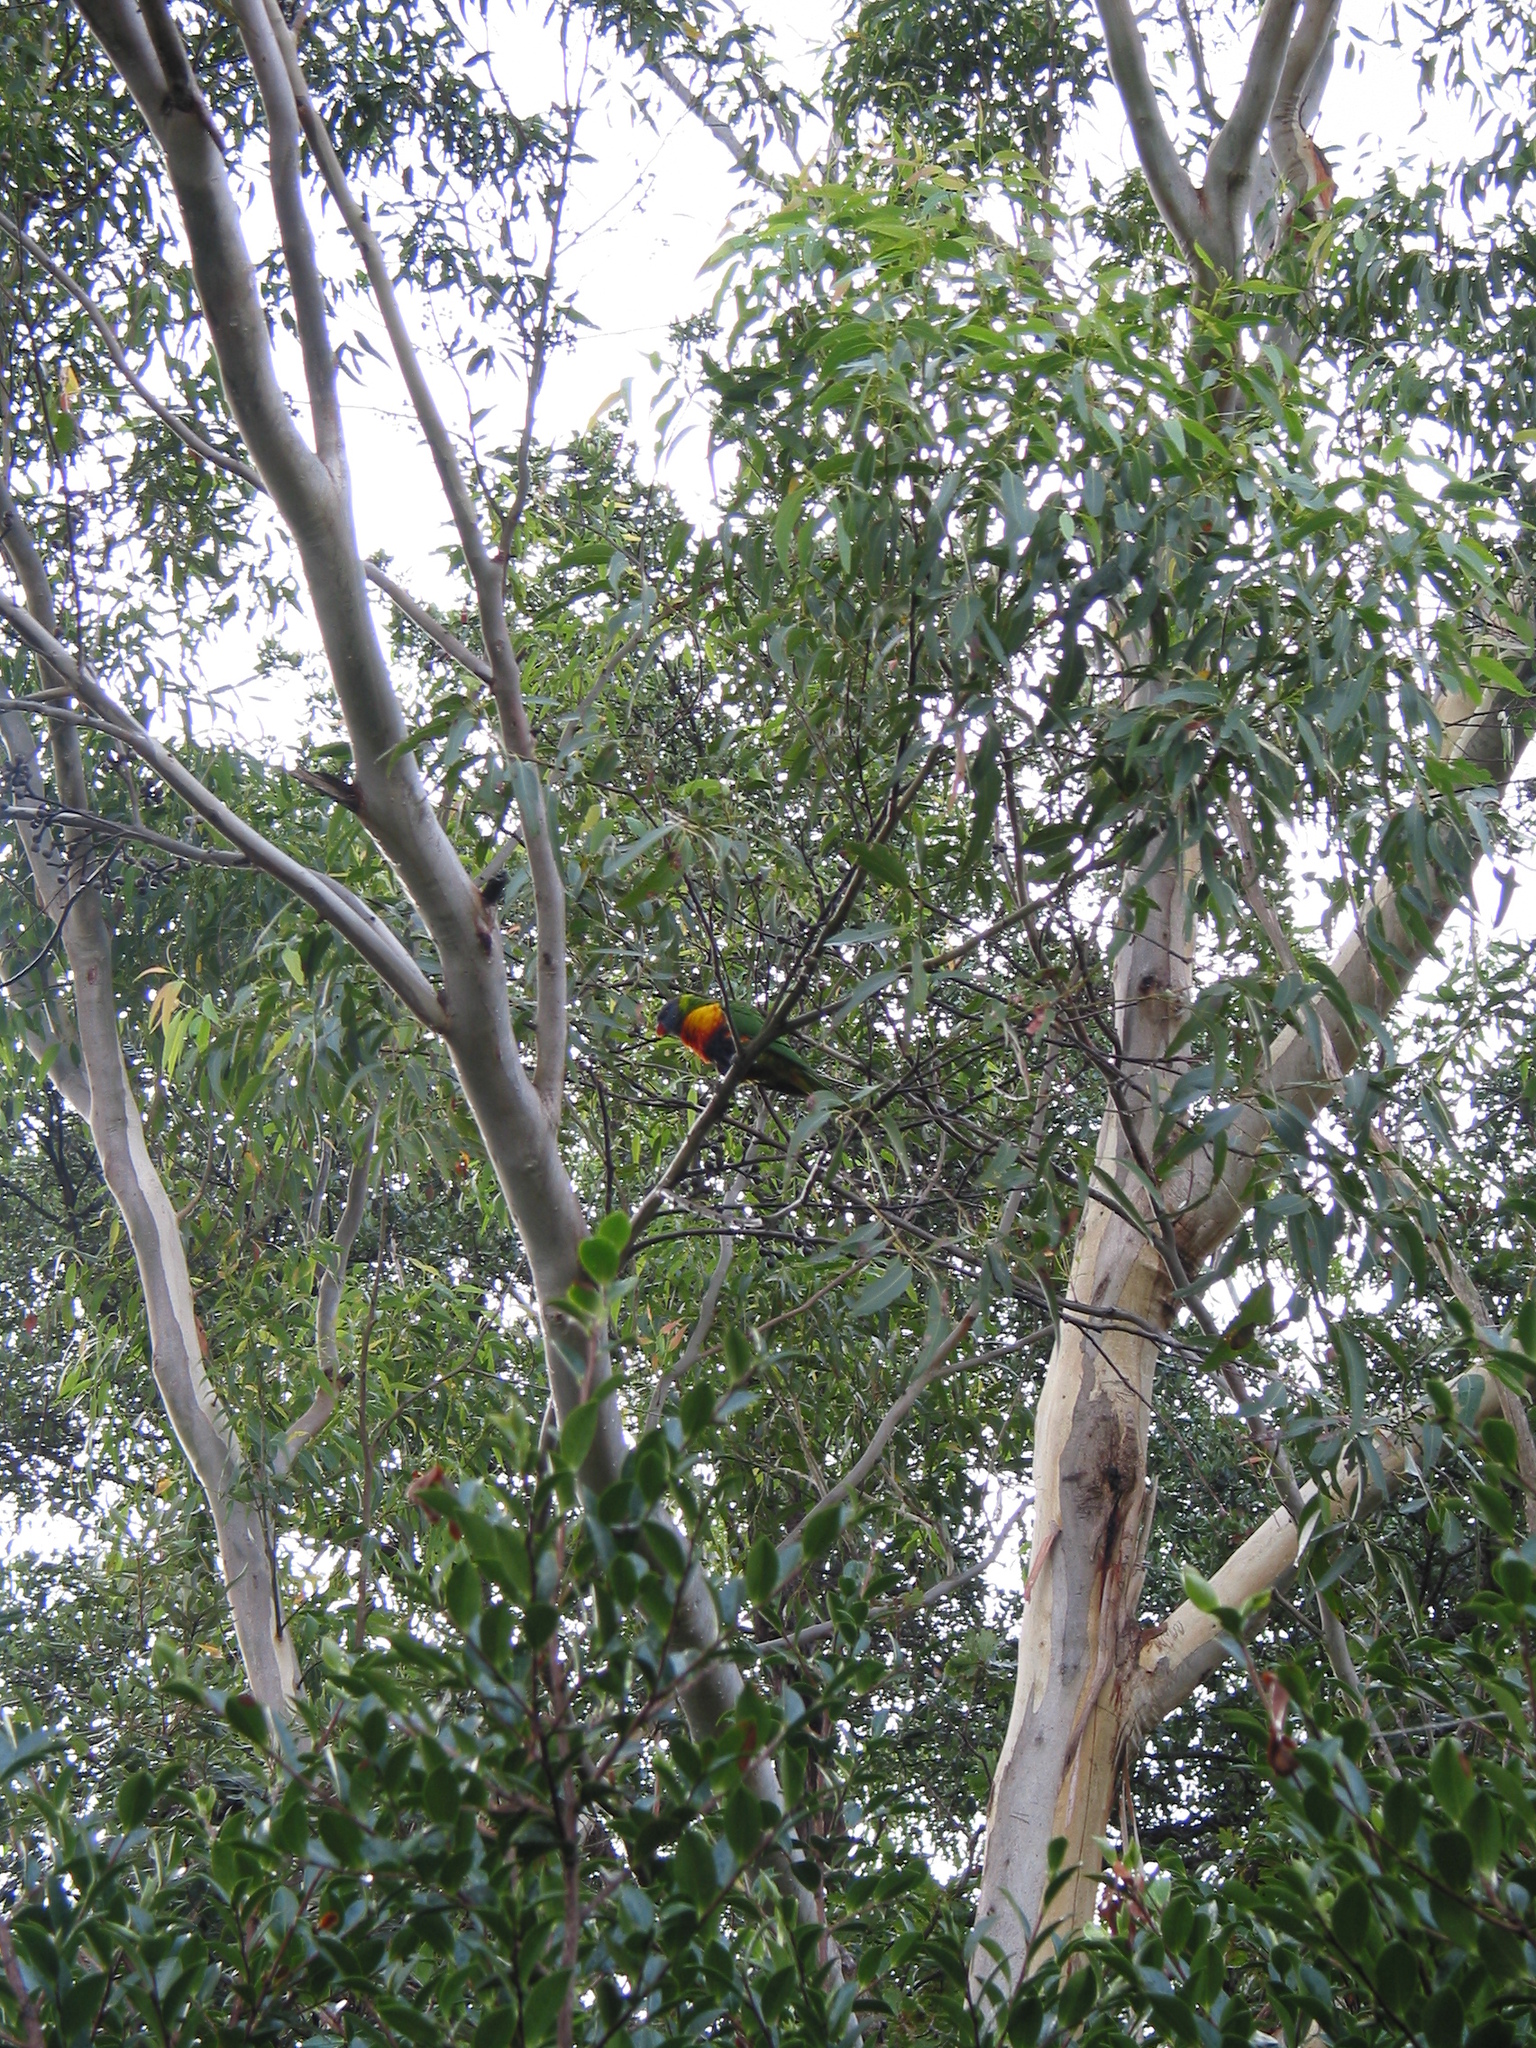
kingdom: Animalia
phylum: Chordata
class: Aves
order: Psittaciformes
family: Psittacidae
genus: Trichoglossus
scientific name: Trichoglossus haematodus
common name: Coconut lorikeet
